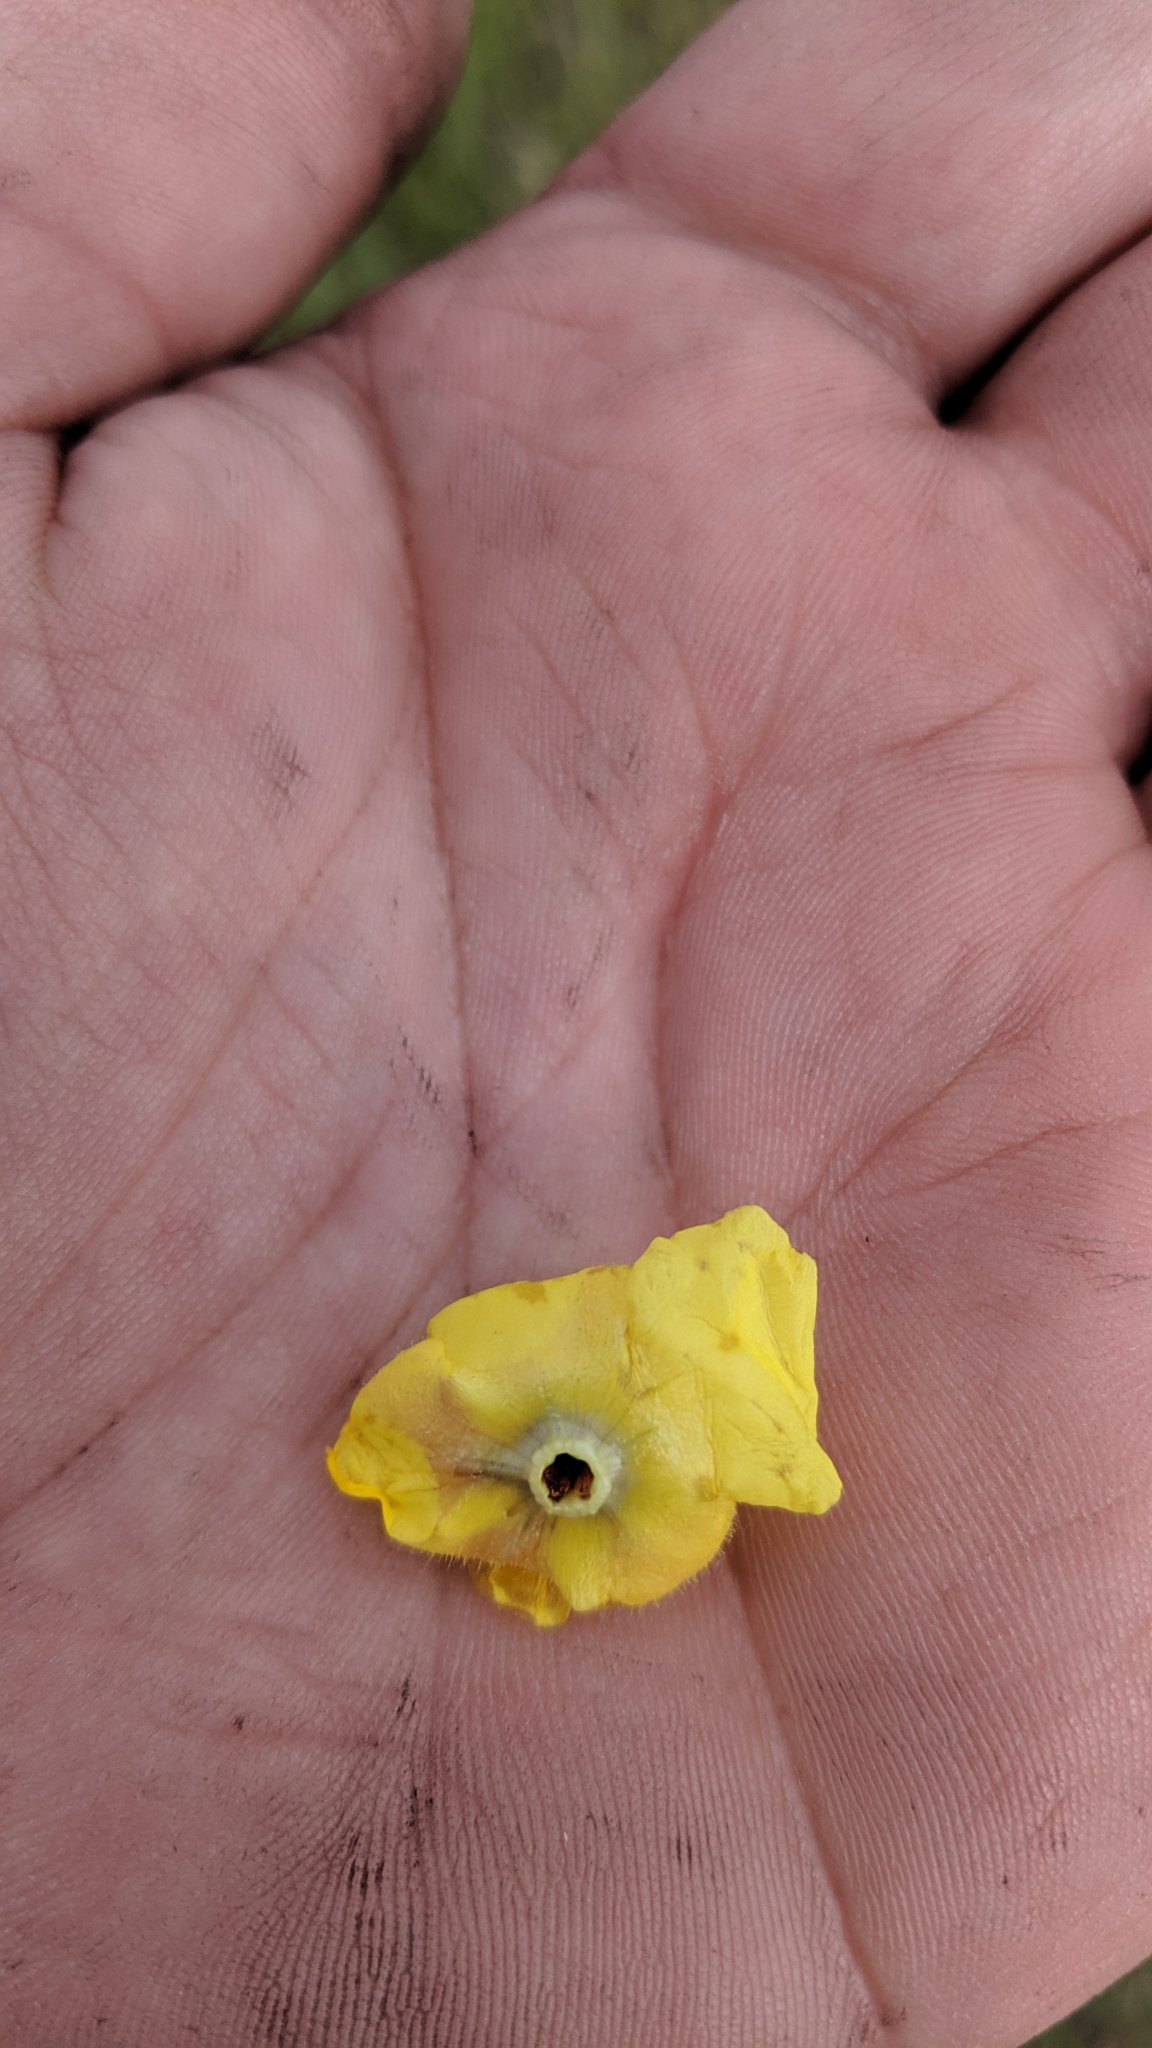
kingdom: Plantae
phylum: Tracheophyta
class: Magnoliopsida
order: Lamiales
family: Scrophulariaceae
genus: Verbascum
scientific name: Verbascum blattaria
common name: Moth mullein
